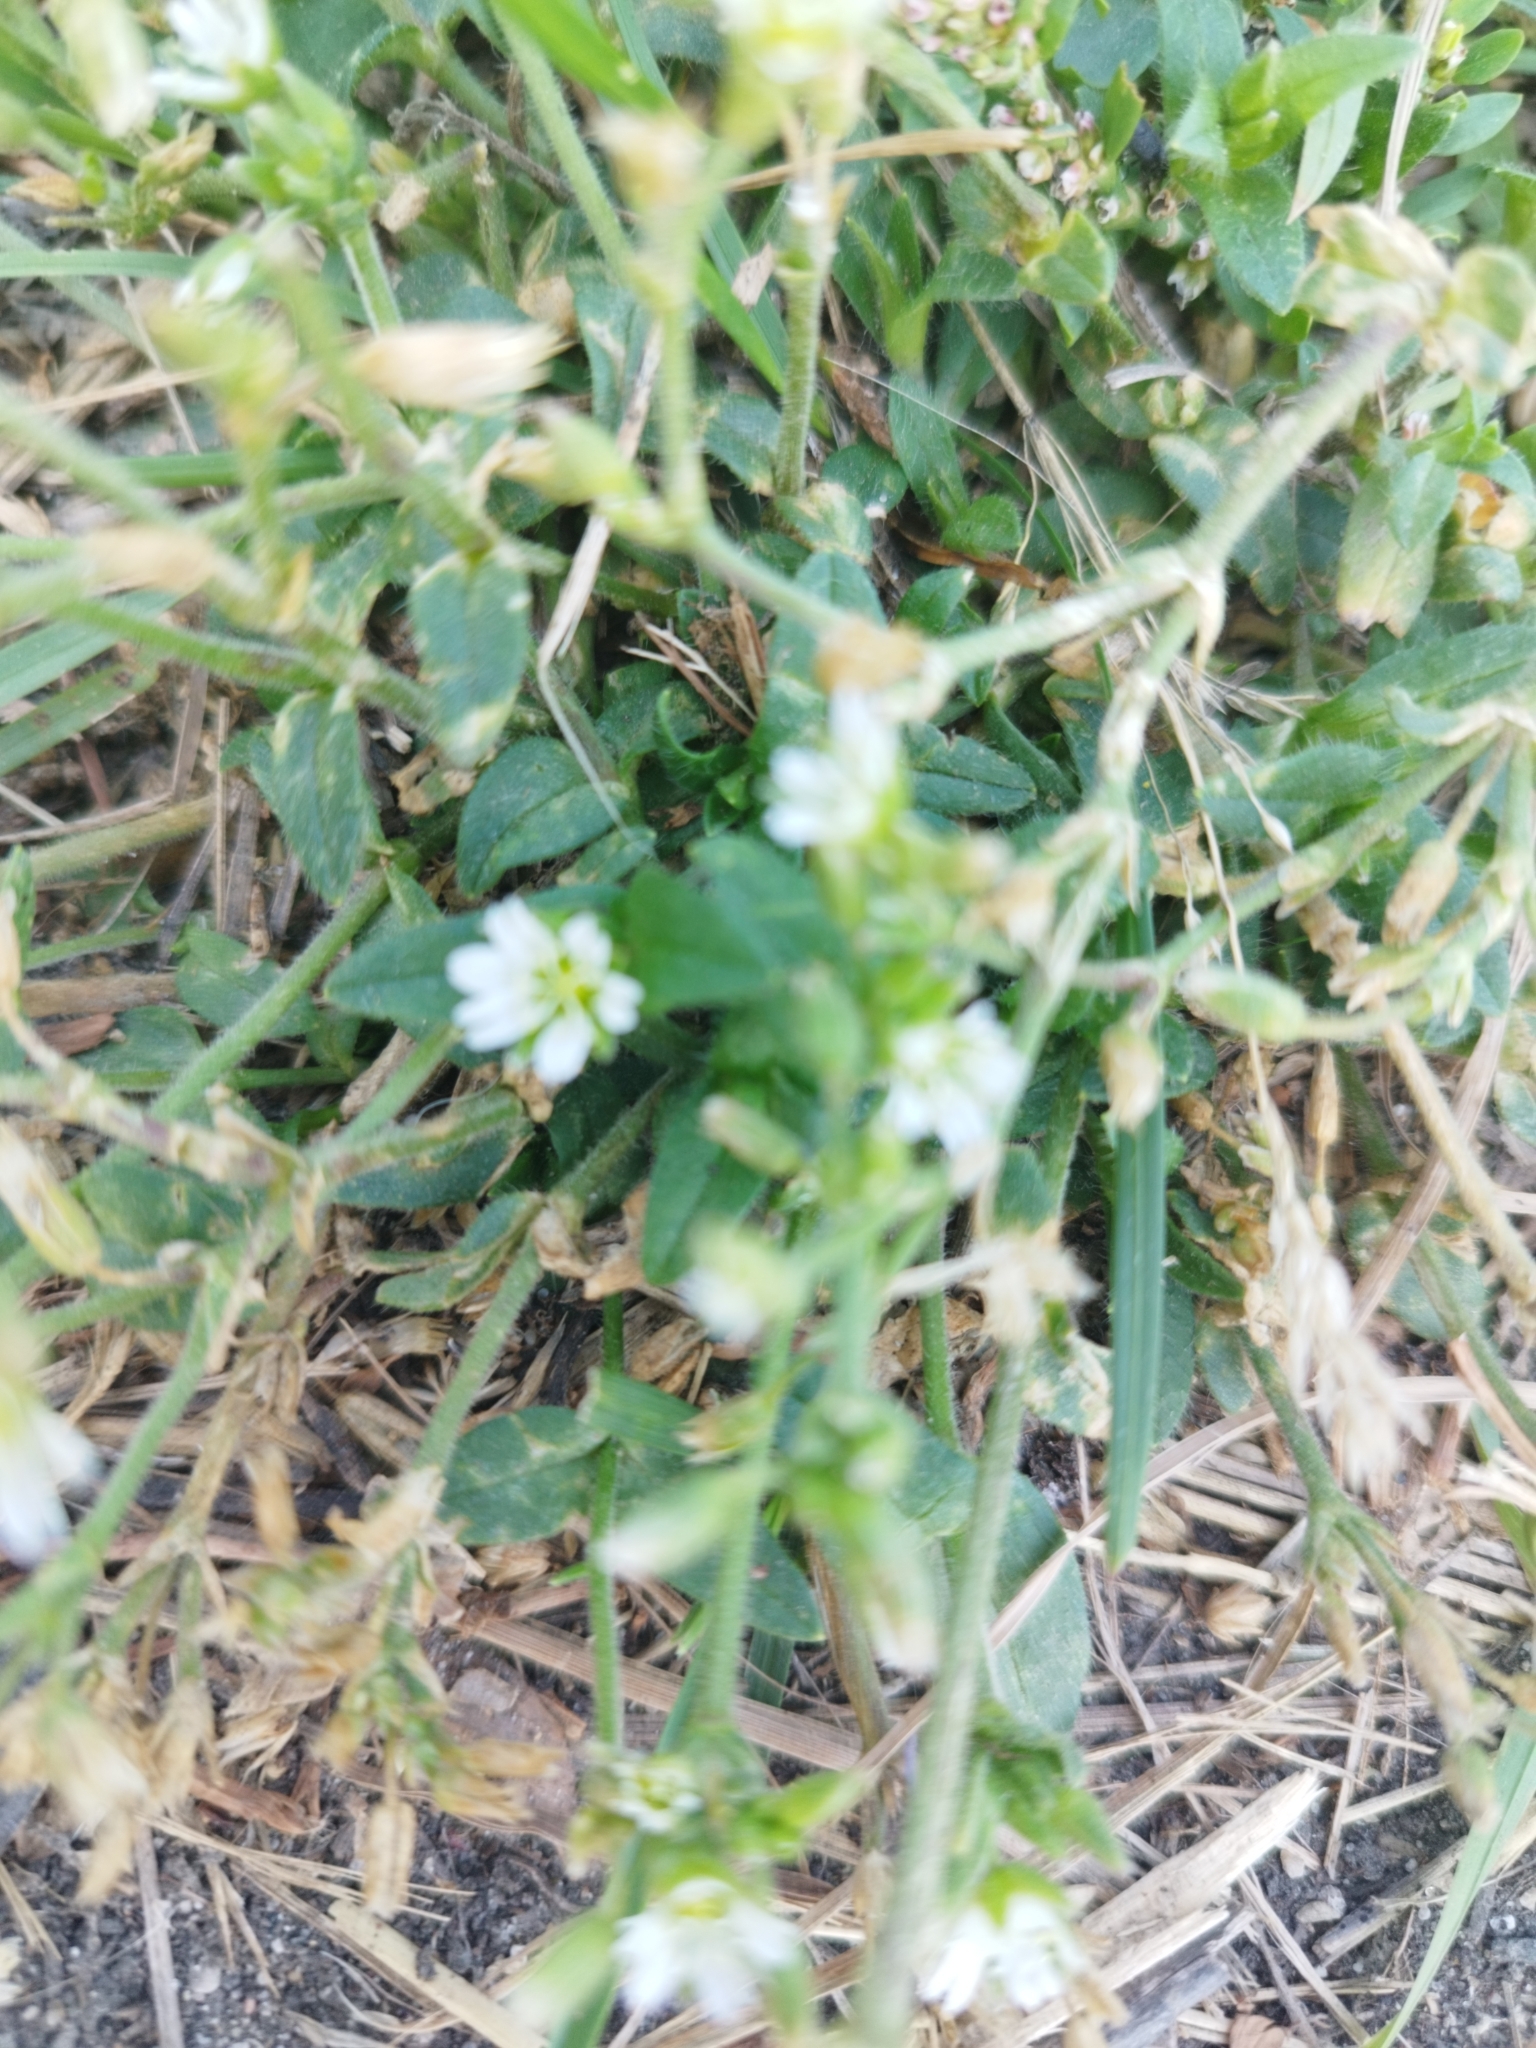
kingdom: Plantae
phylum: Tracheophyta
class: Magnoliopsida
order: Caryophyllales
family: Caryophyllaceae
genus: Cerastium
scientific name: Cerastium holosteoides
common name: Big chickweed
